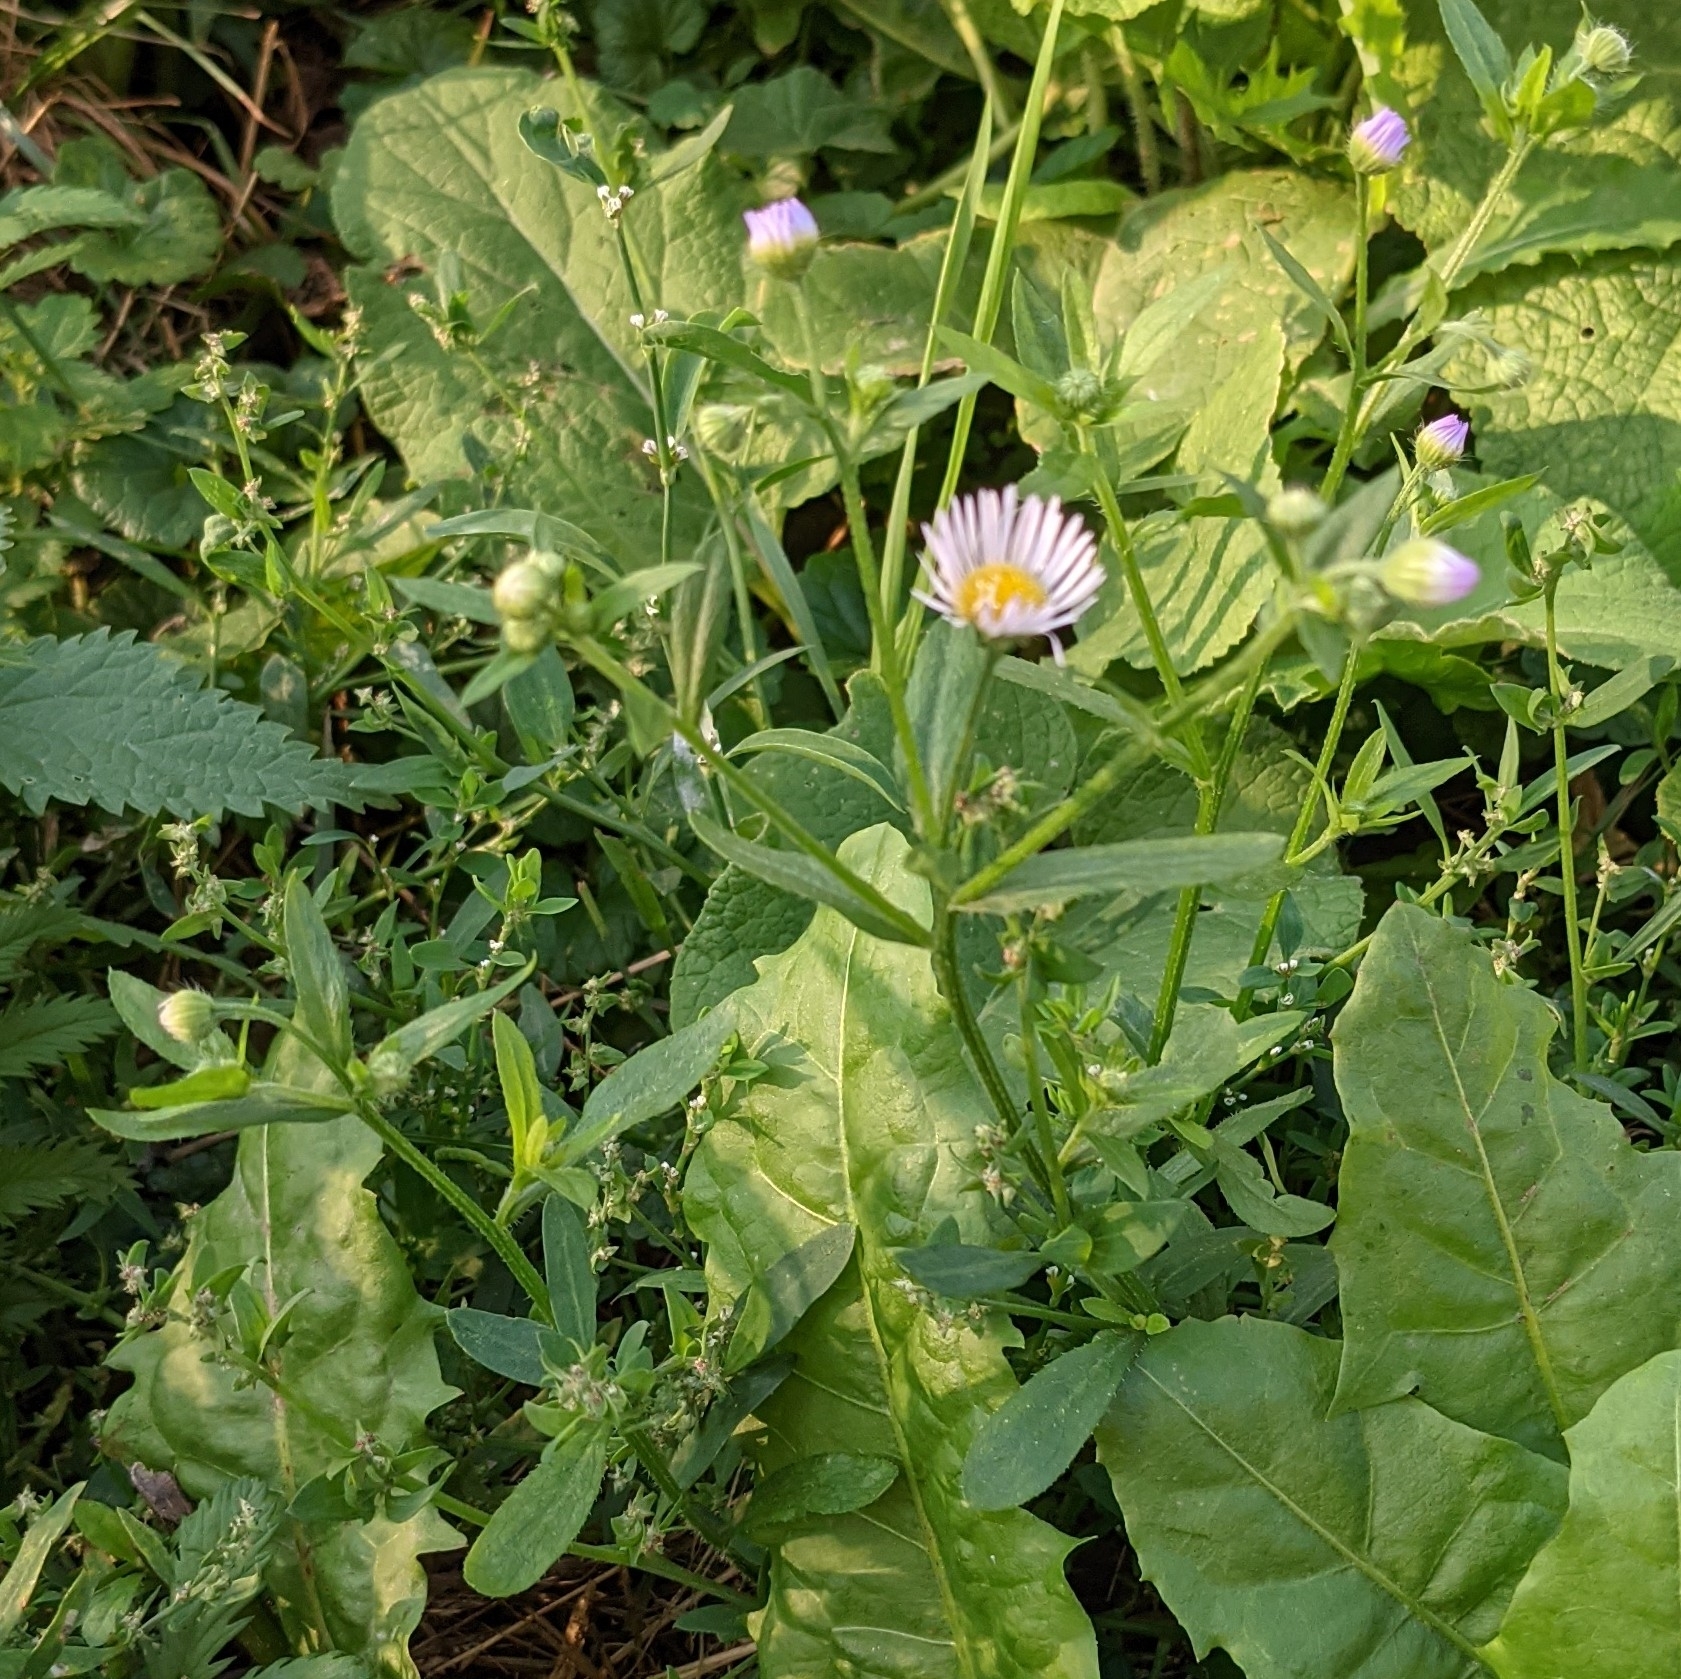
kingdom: Plantae
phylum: Tracheophyta
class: Magnoliopsida
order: Asterales
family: Asteraceae
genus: Erigeron
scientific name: Erigeron annuus
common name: Tall fleabane
